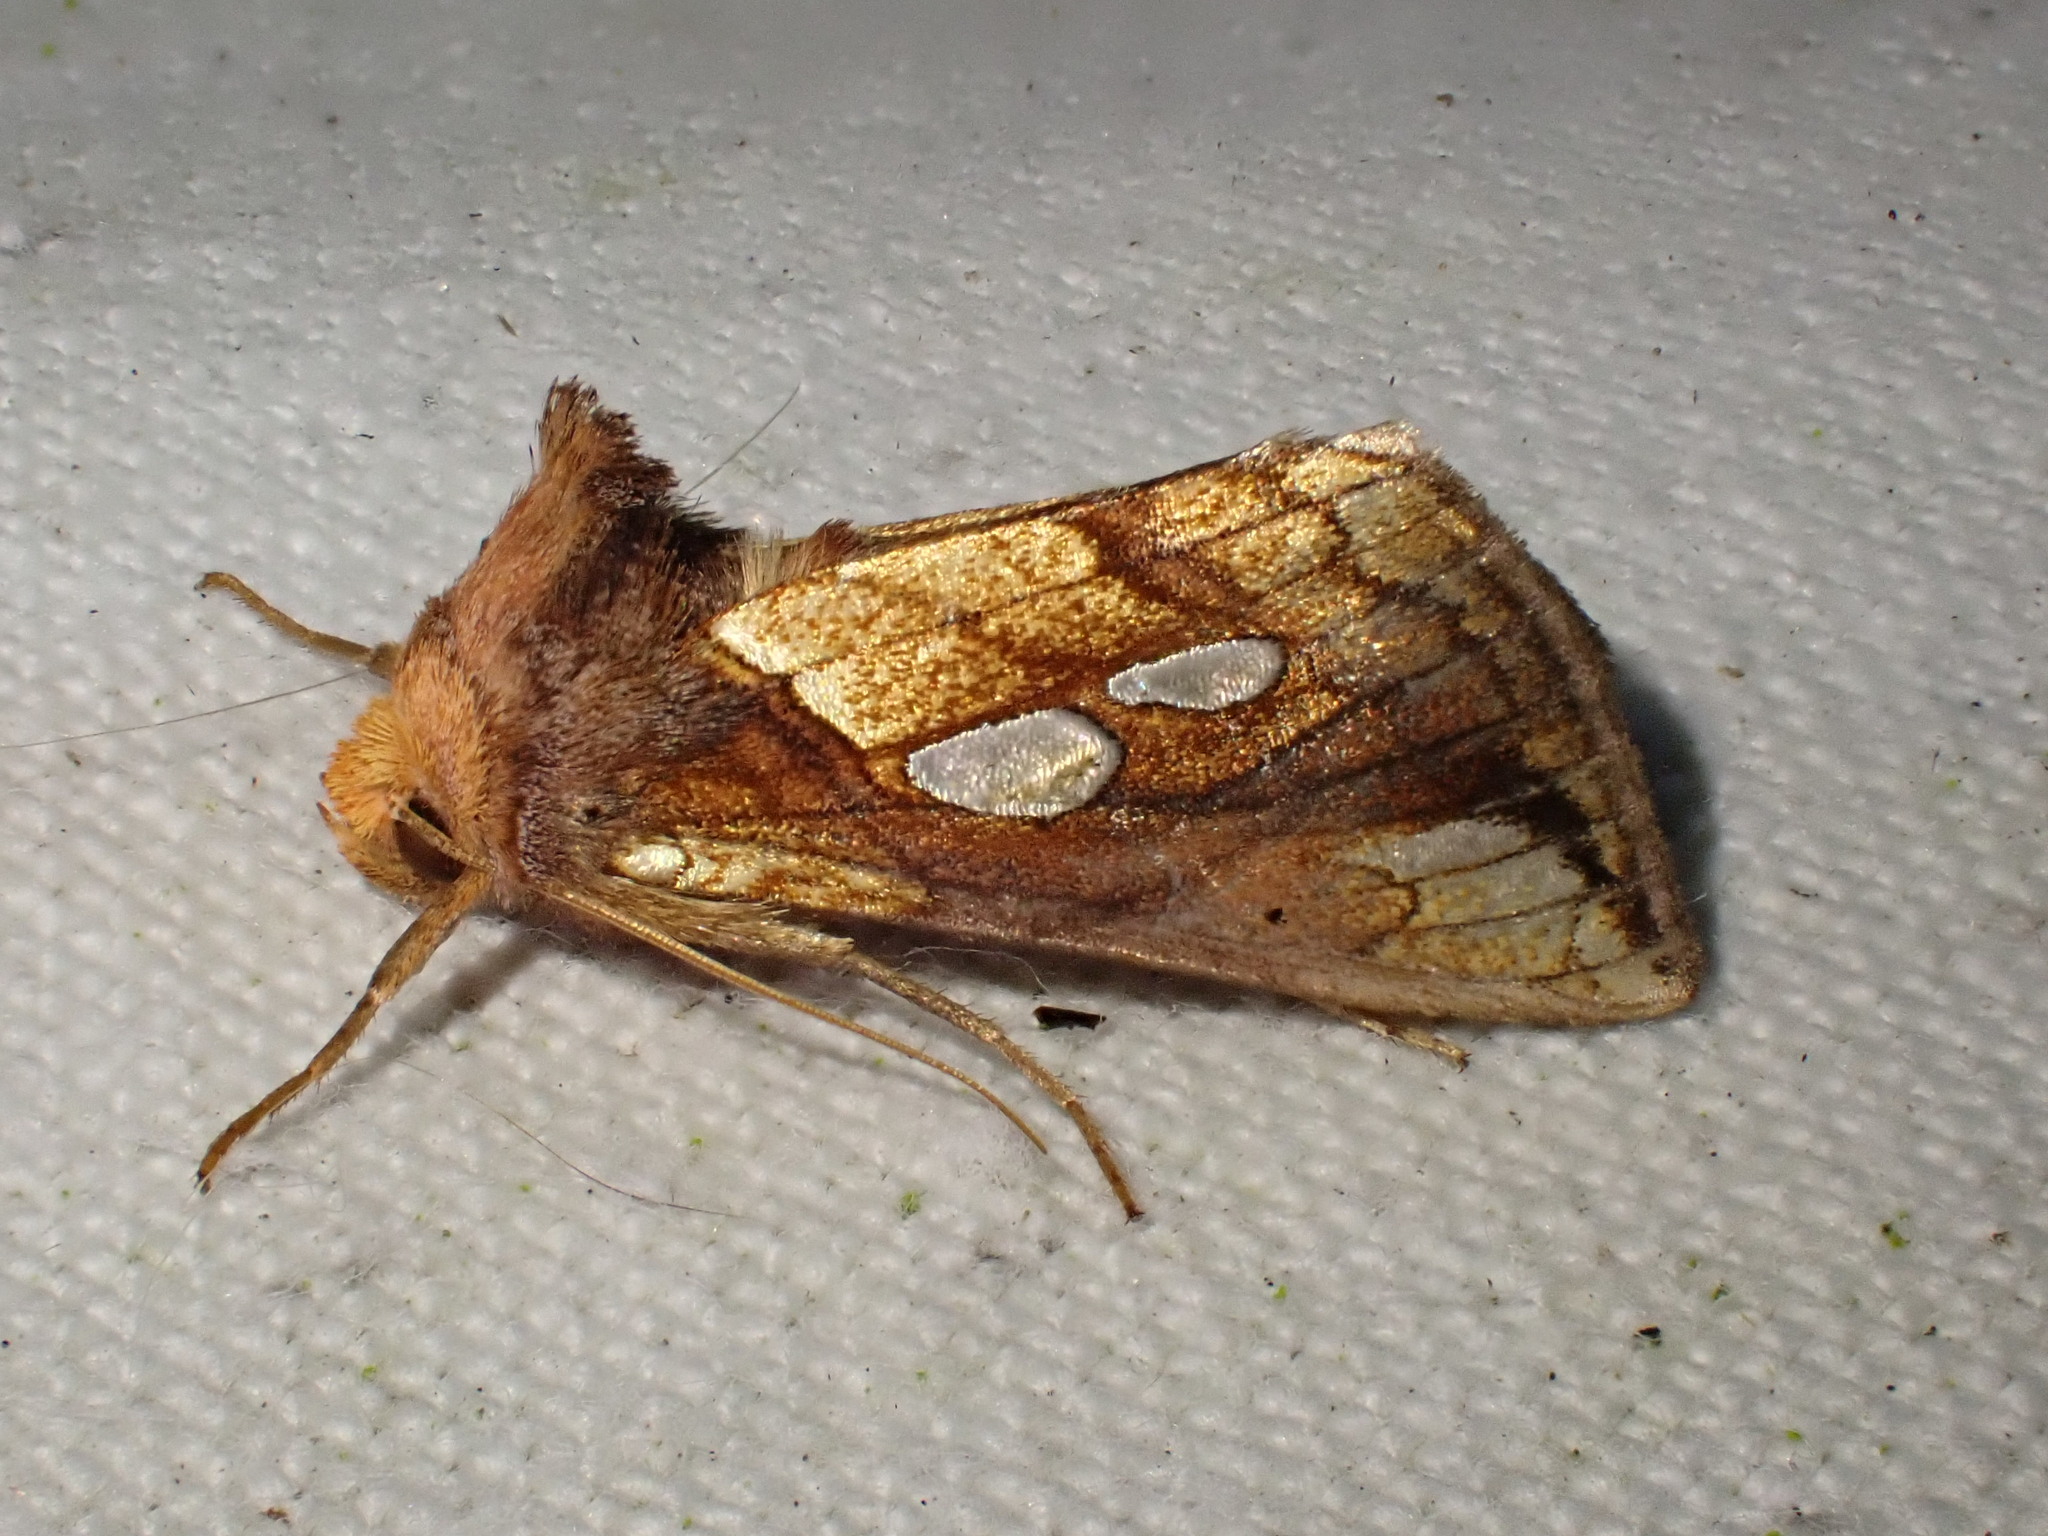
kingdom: Animalia
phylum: Arthropoda
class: Insecta
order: Lepidoptera
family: Noctuidae
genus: Plusia
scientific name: Plusia festucae
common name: Gold spot
